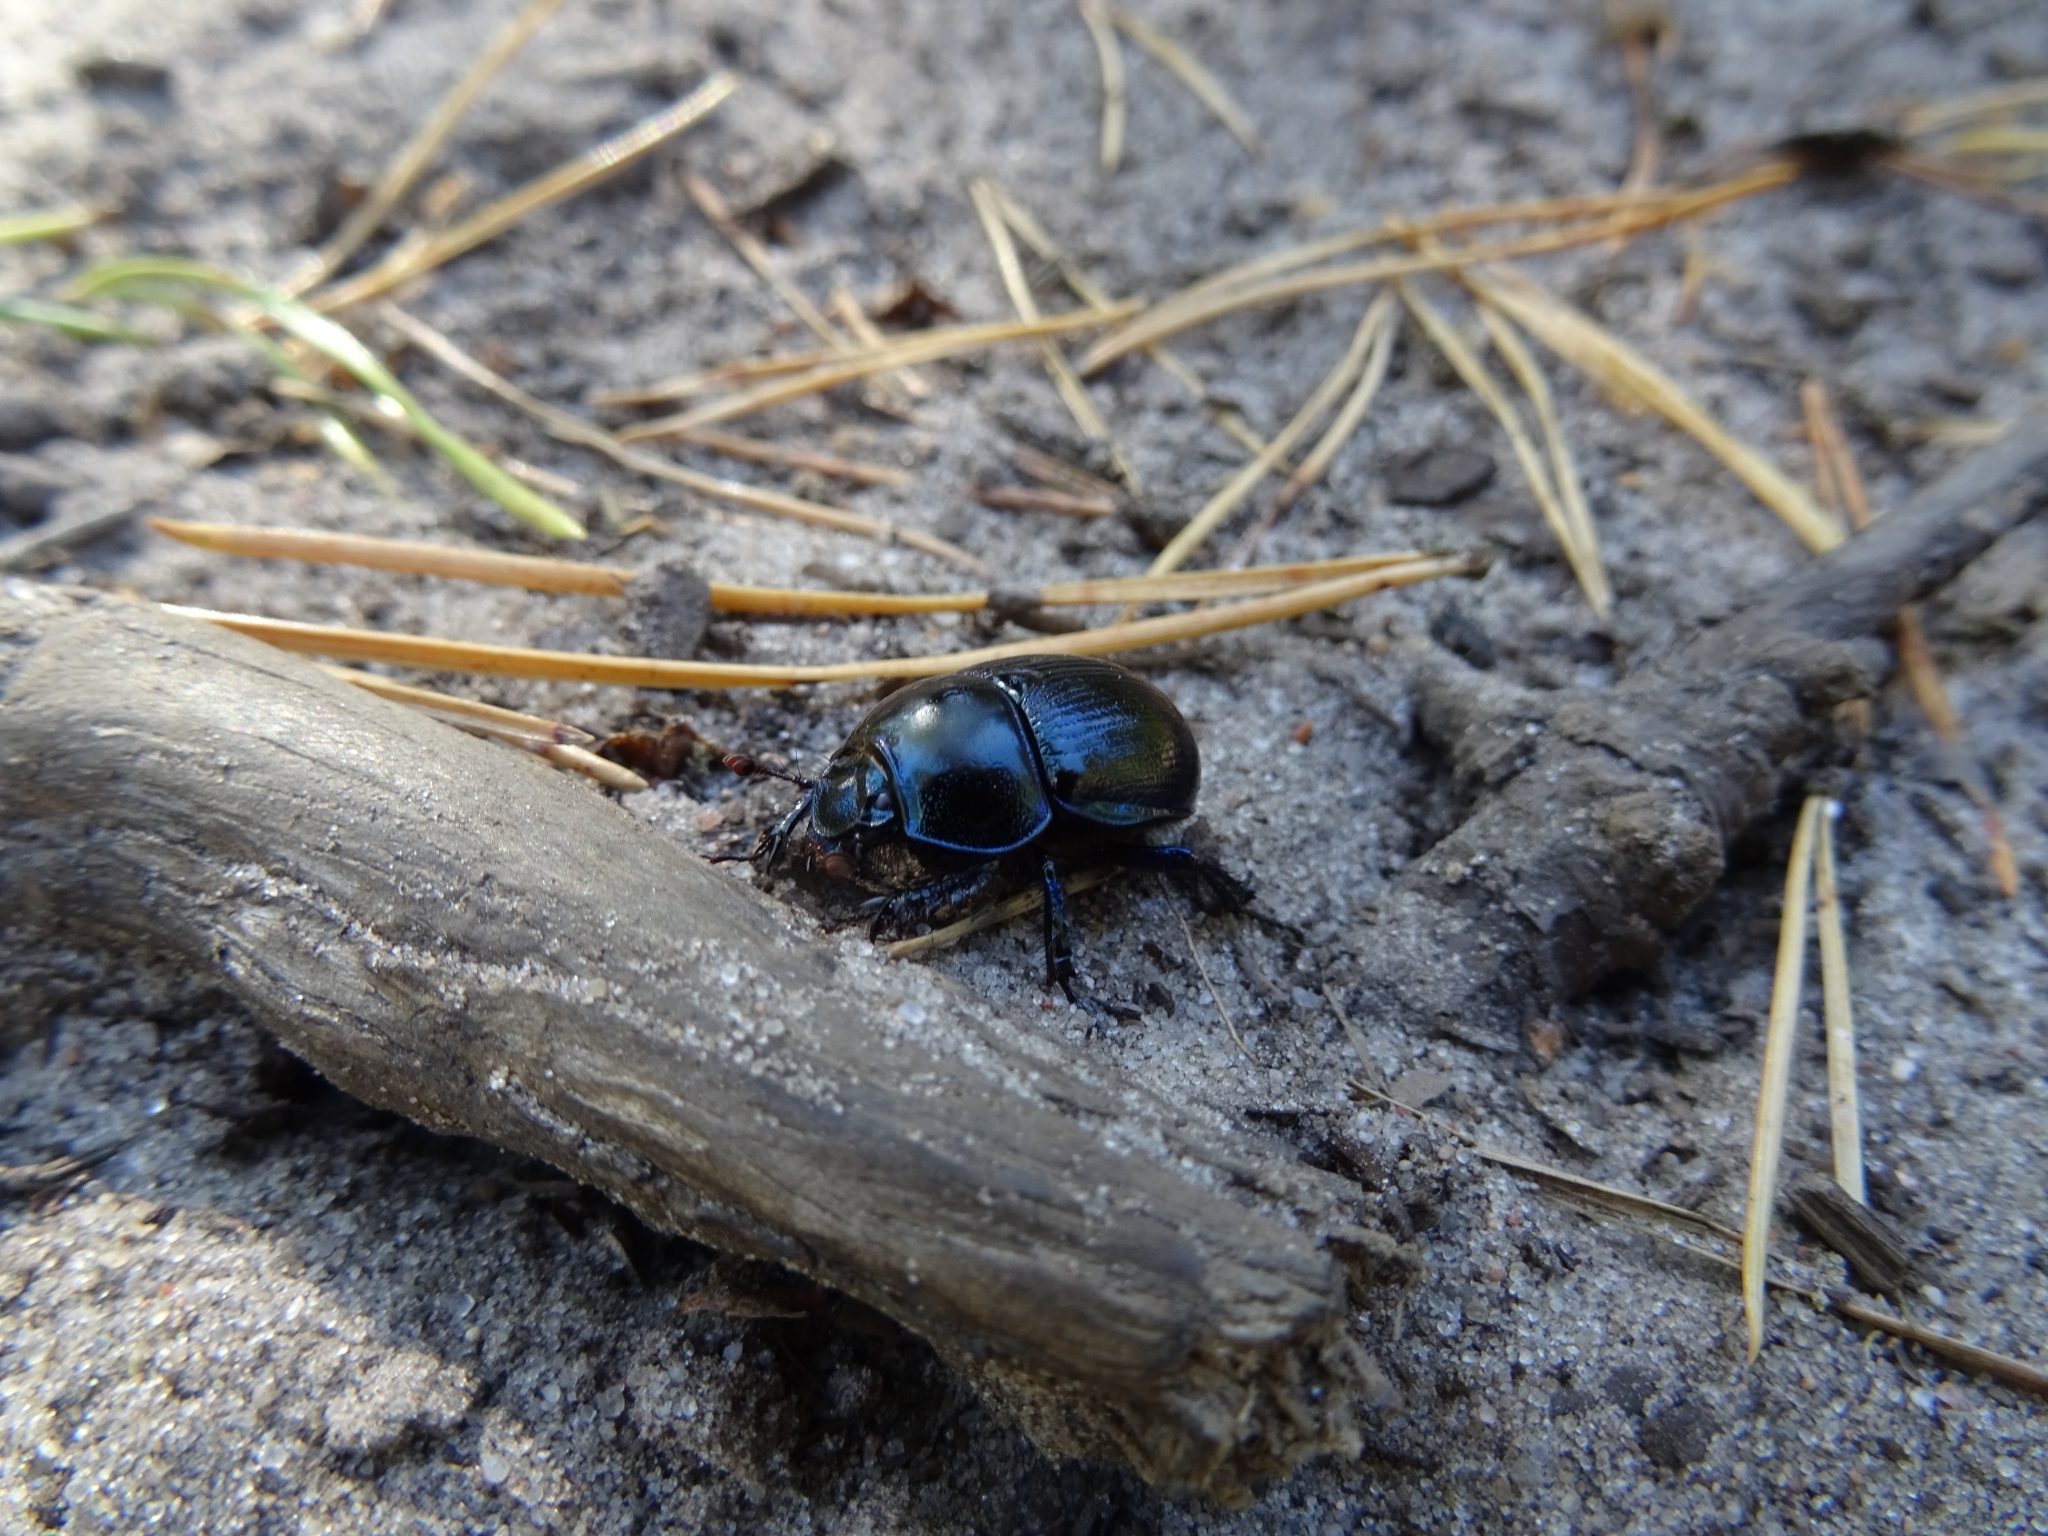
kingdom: Animalia
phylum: Arthropoda
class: Insecta
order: Coleoptera
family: Geotrupidae
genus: Anoplotrupes
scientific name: Anoplotrupes stercorosus
